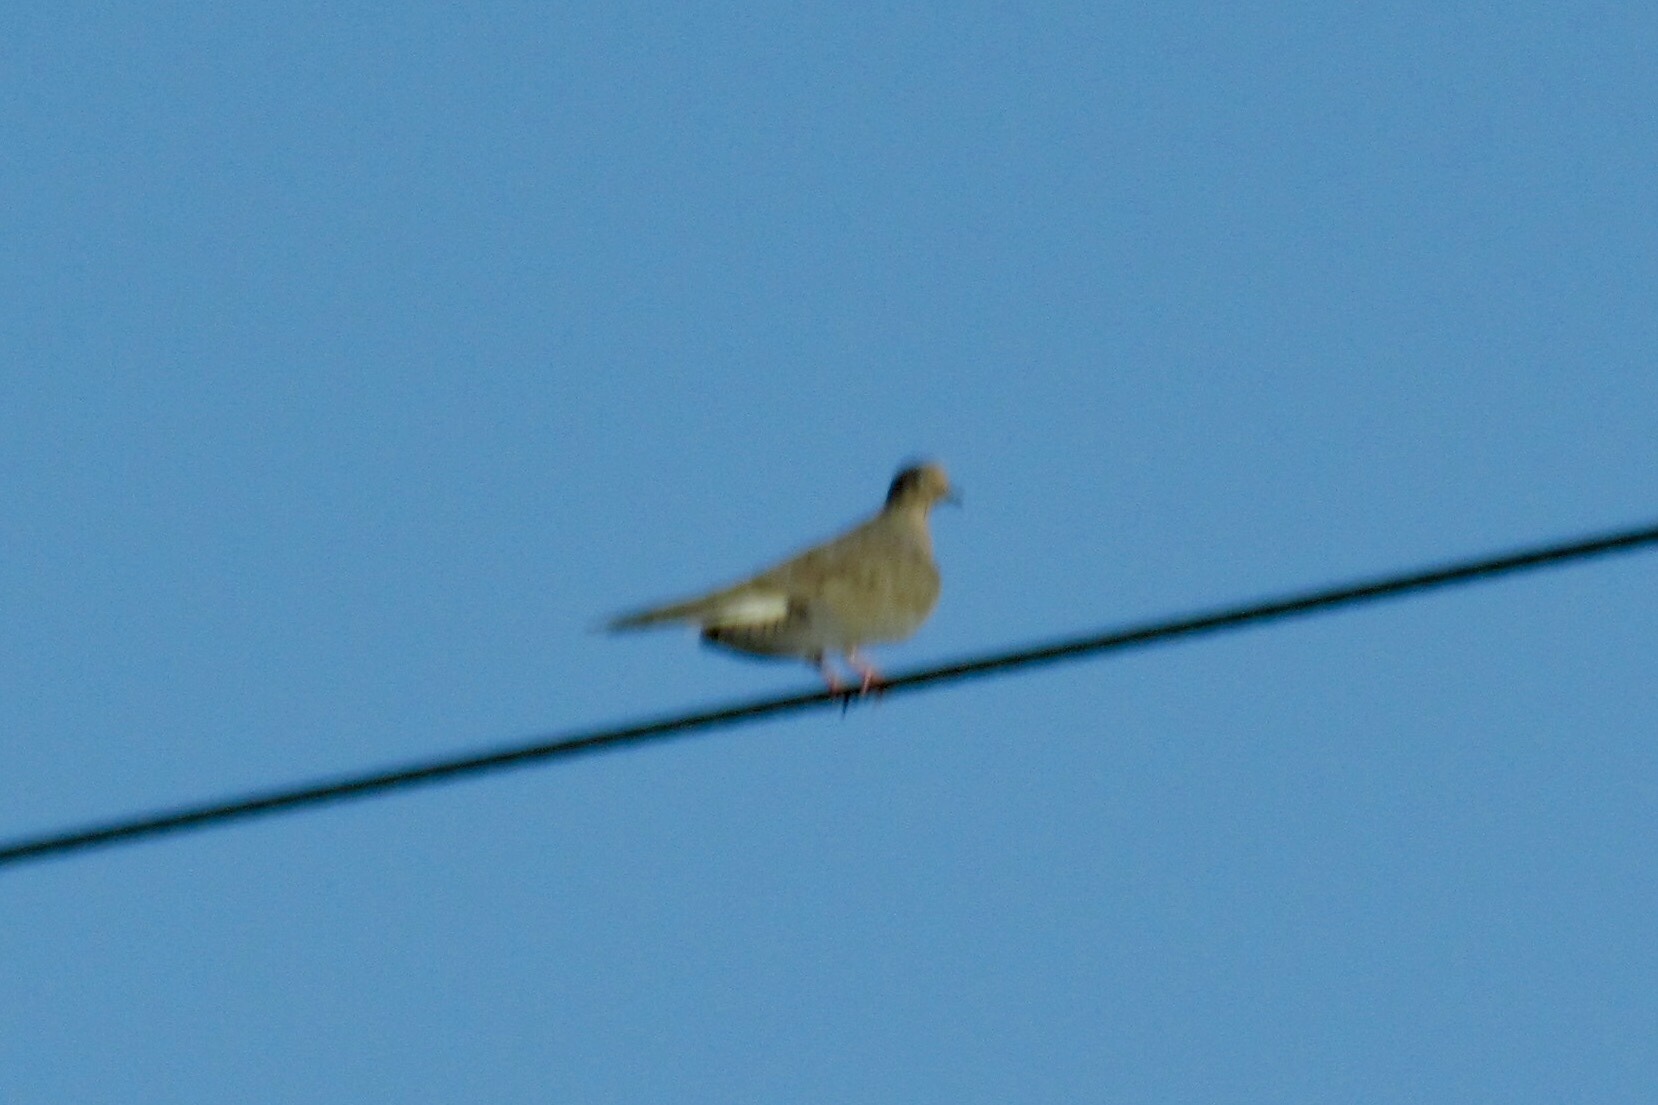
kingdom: Animalia
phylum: Chordata
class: Aves
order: Columbiformes
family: Columbidae
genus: Zenaida
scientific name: Zenaida macroura
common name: Mourning dove
